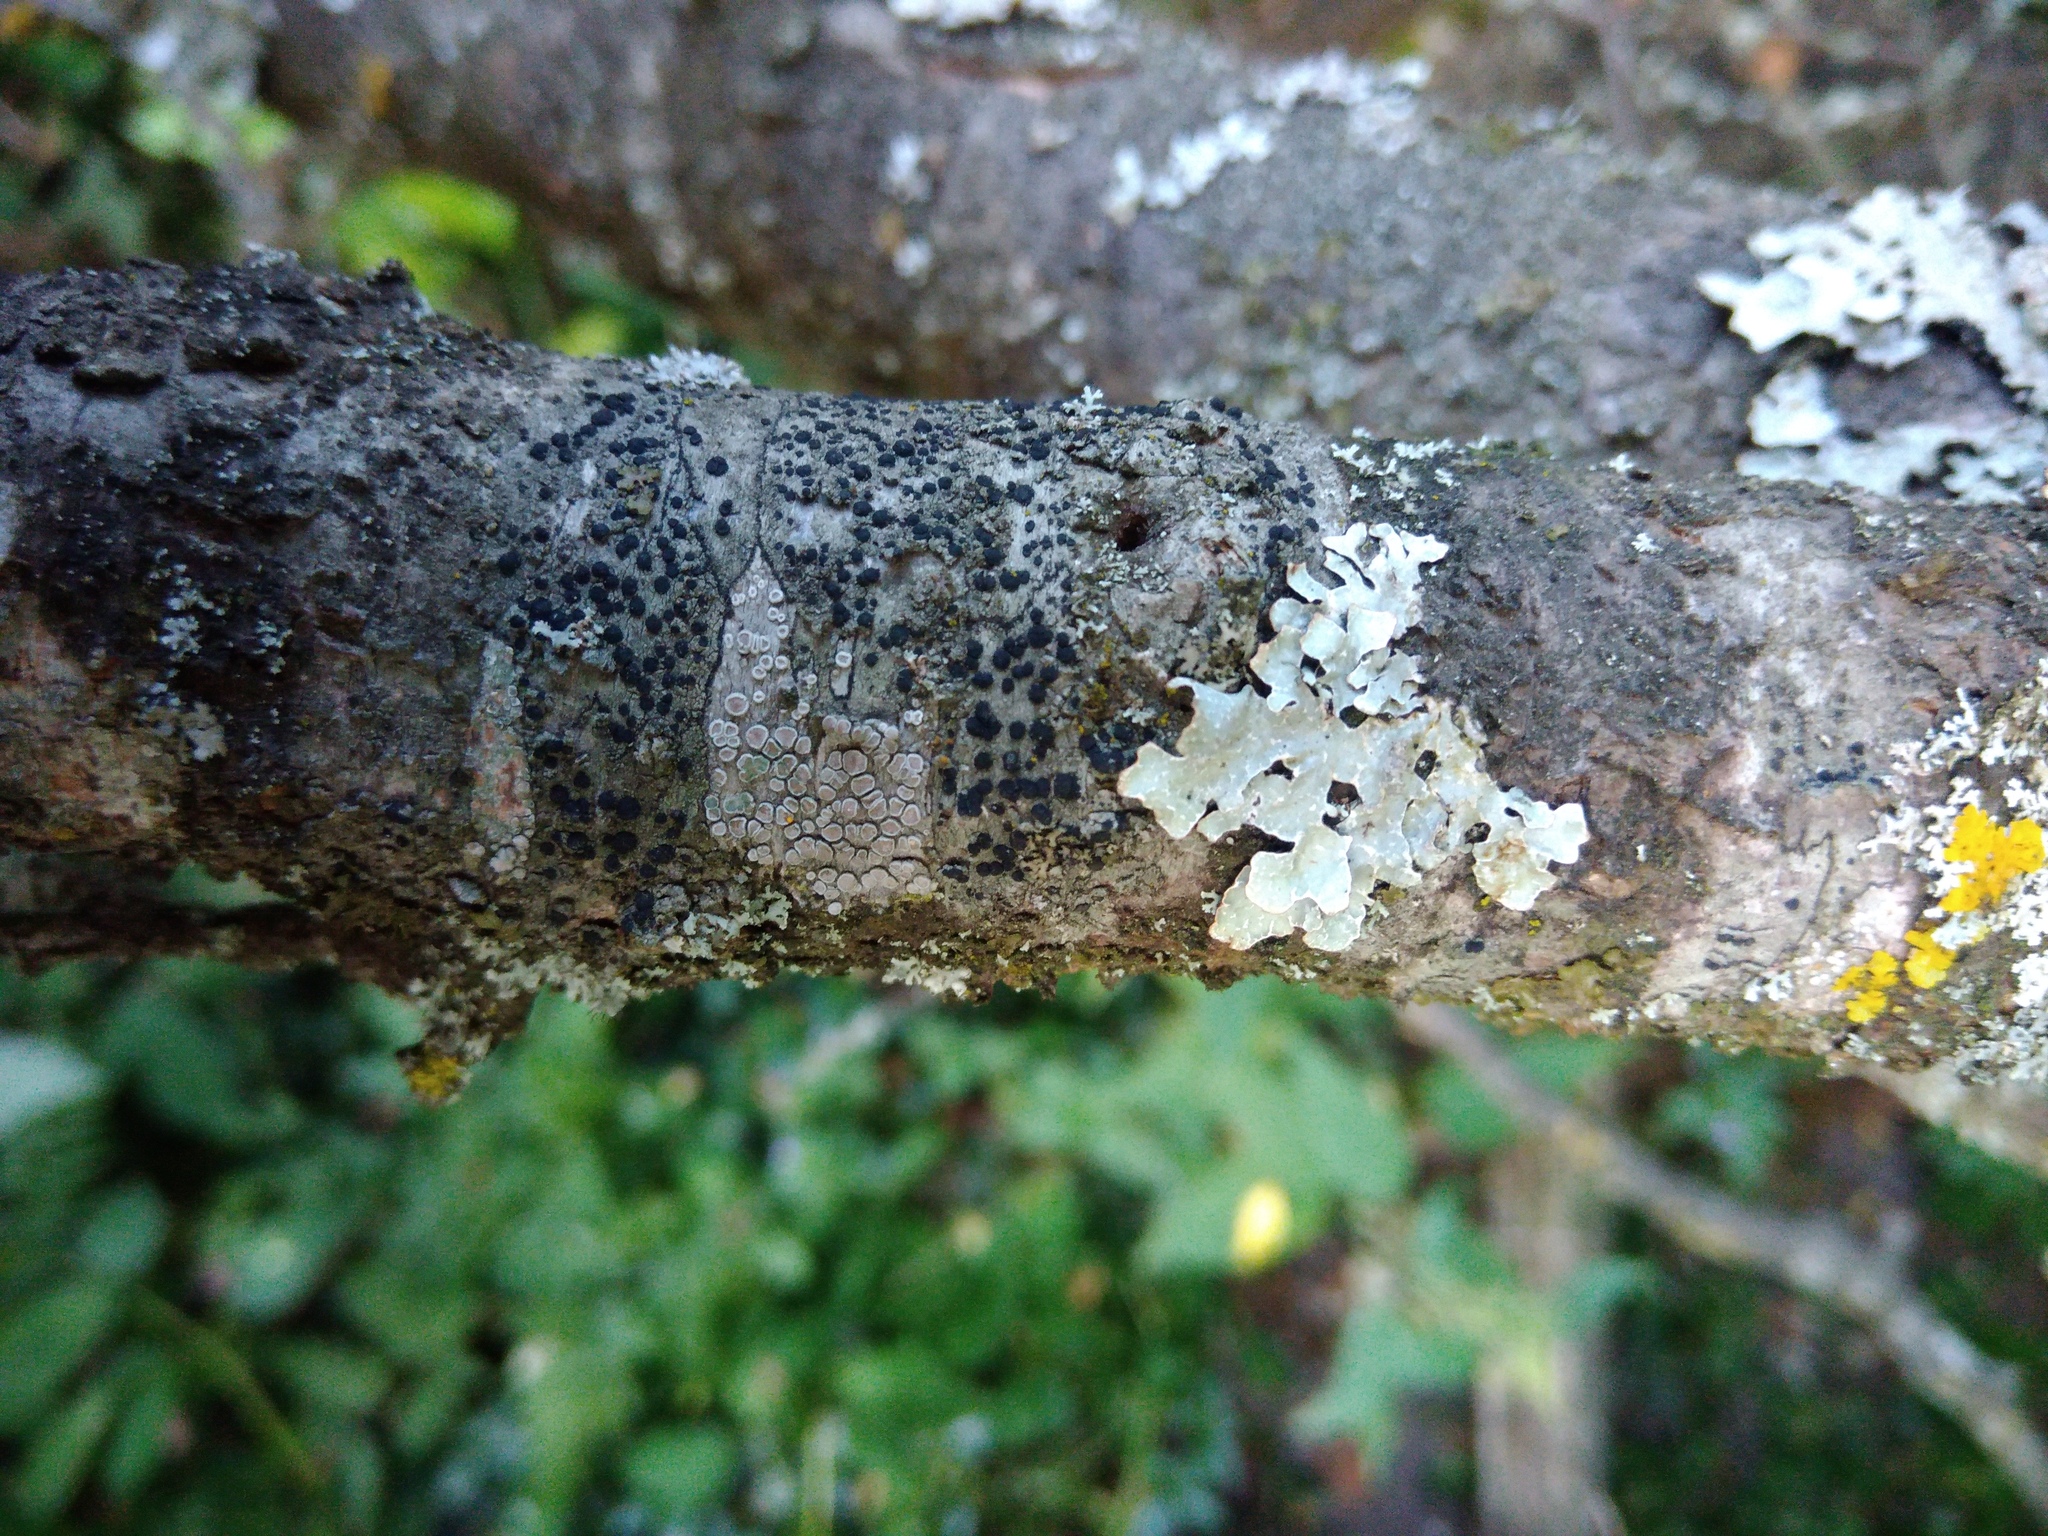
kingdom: Fungi
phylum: Ascomycota
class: Lecanoromycetes
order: Lecanorales
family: Lecanoraceae
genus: Glaucomaria
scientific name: Glaucomaria carpinea
